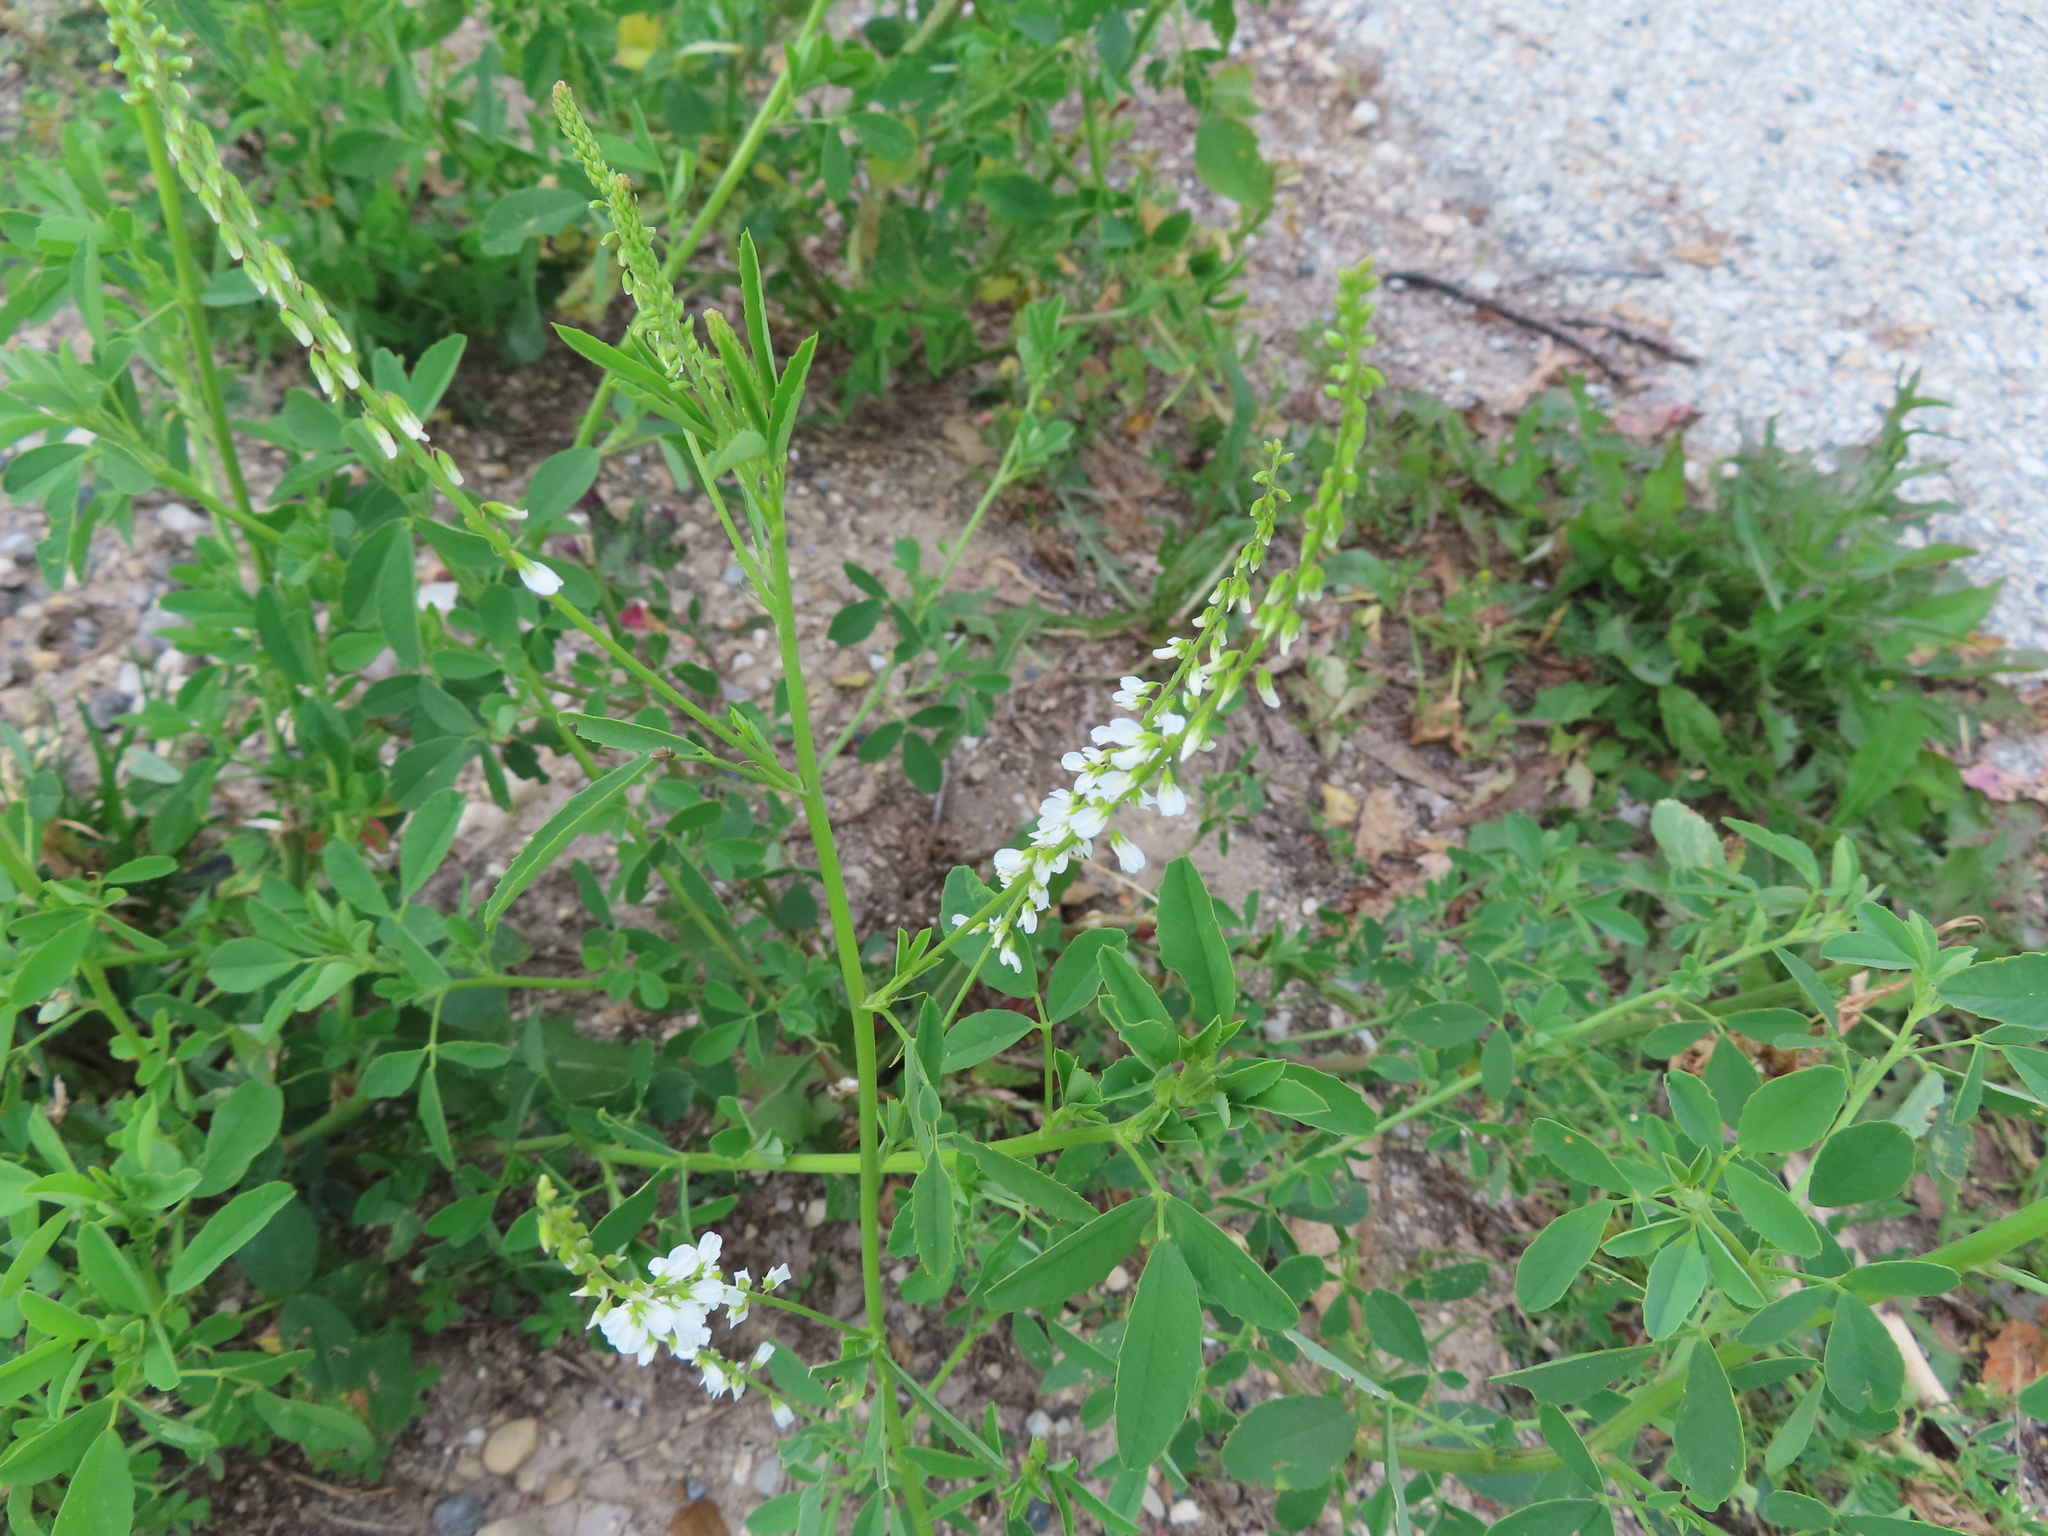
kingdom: Plantae
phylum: Tracheophyta
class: Magnoliopsida
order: Fabales
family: Fabaceae
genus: Melilotus
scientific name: Melilotus albus
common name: White melilot
